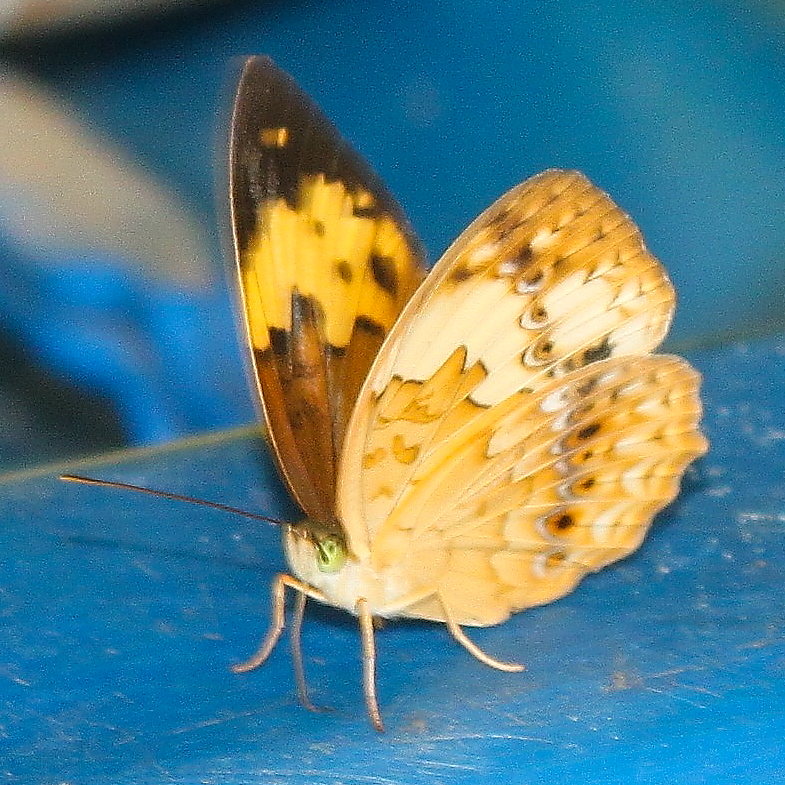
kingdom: Animalia
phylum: Arthropoda
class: Insecta
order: Lepidoptera
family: Nymphalidae
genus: Cupha
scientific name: Cupha erymanthis
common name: Rustic
